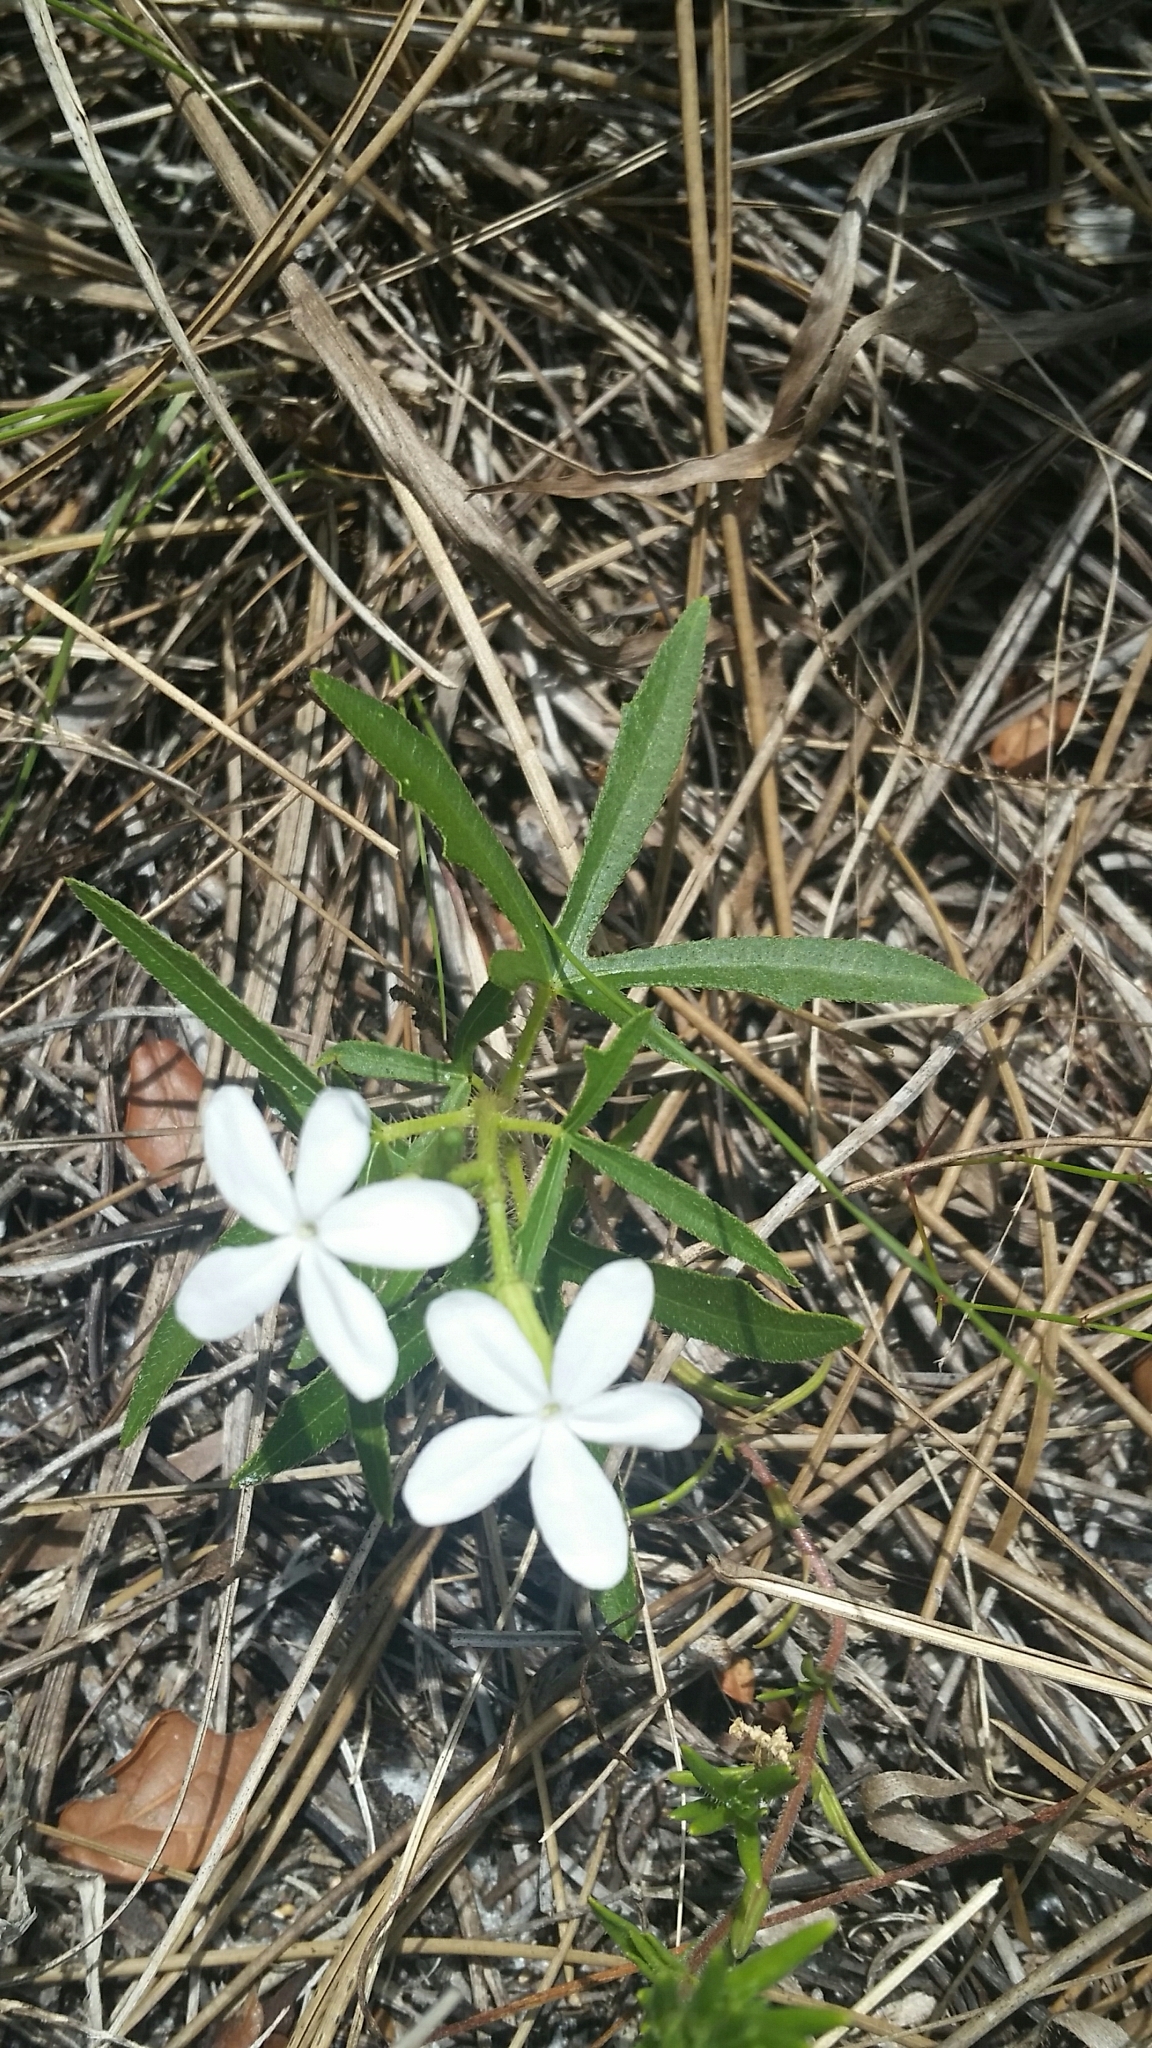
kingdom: Plantae
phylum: Tracheophyta
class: Magnoliopsida
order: Malpighiales
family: Euphorbiaceae
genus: Cnidoscolus
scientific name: Cnidoscolus stimulosus
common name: Bull-nettle
